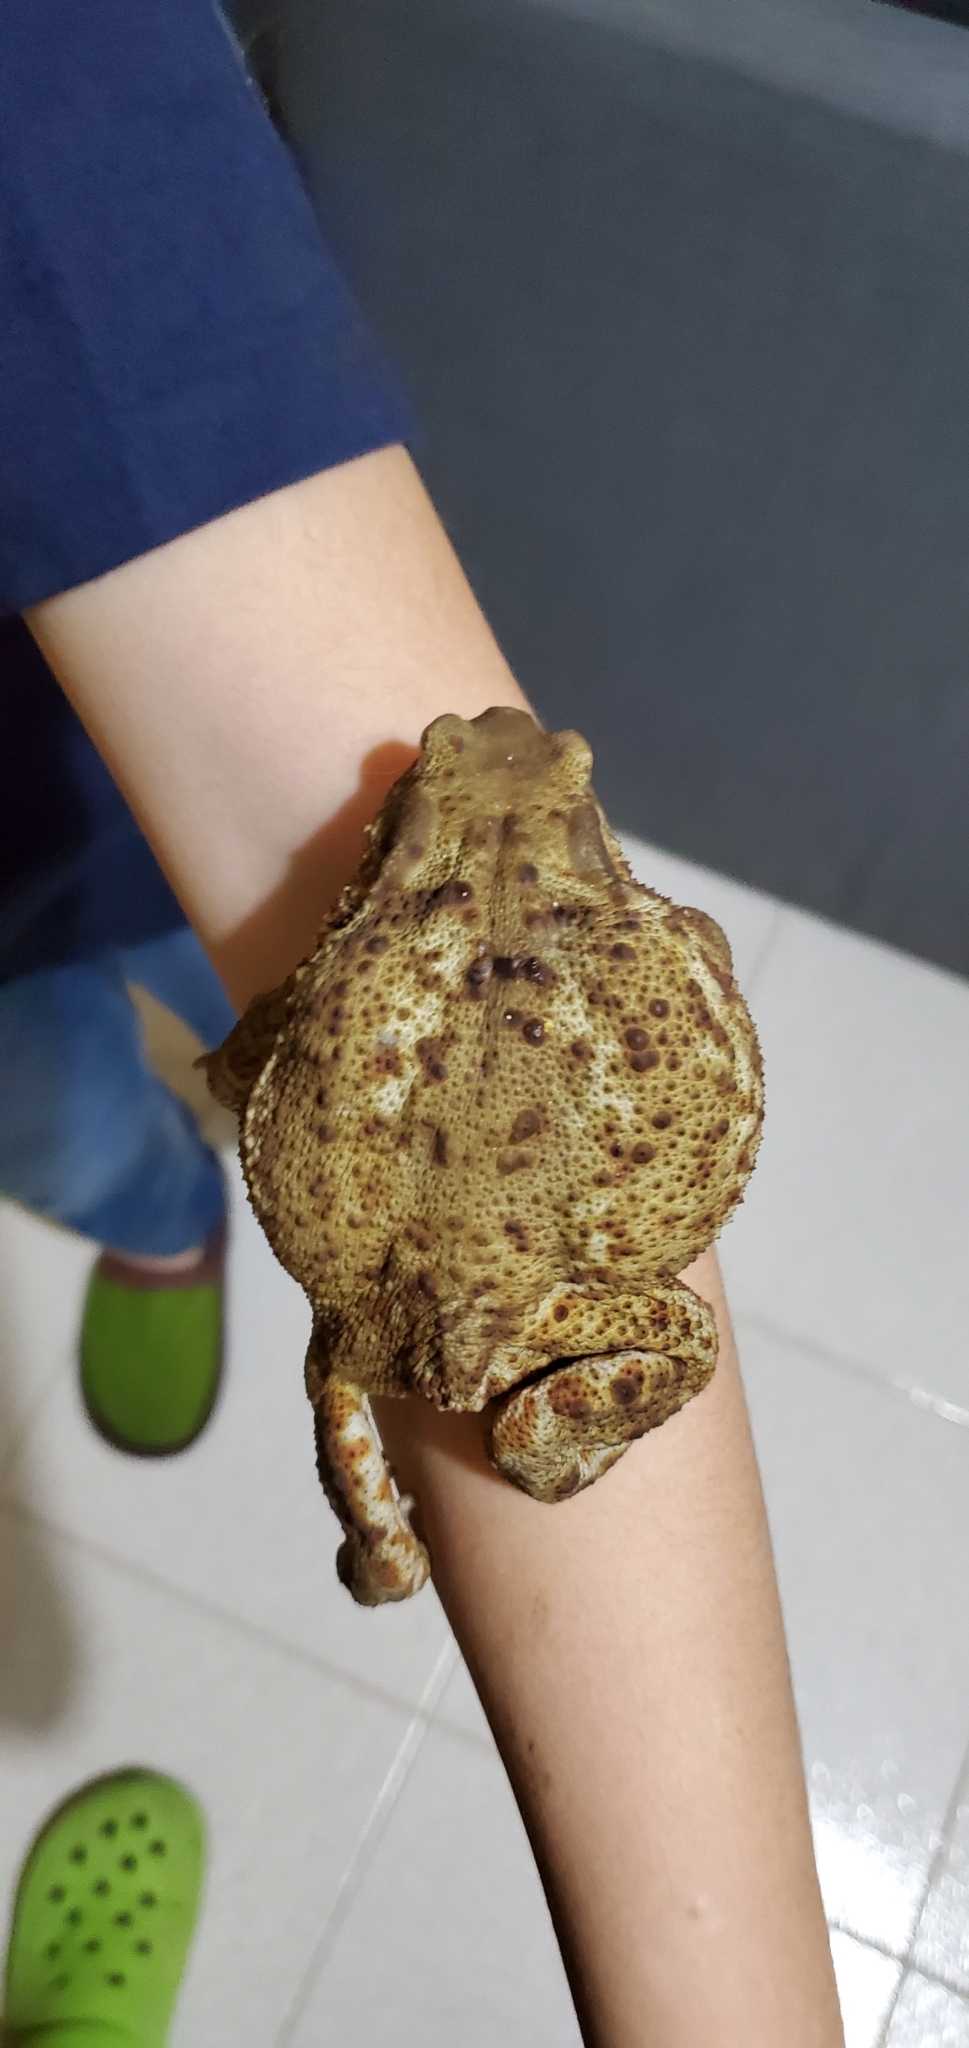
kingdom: Animalia
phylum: Chordata
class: Amphibia
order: Anura
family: Bufonidae
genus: Bufo
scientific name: Bufo bufo
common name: Common toad
